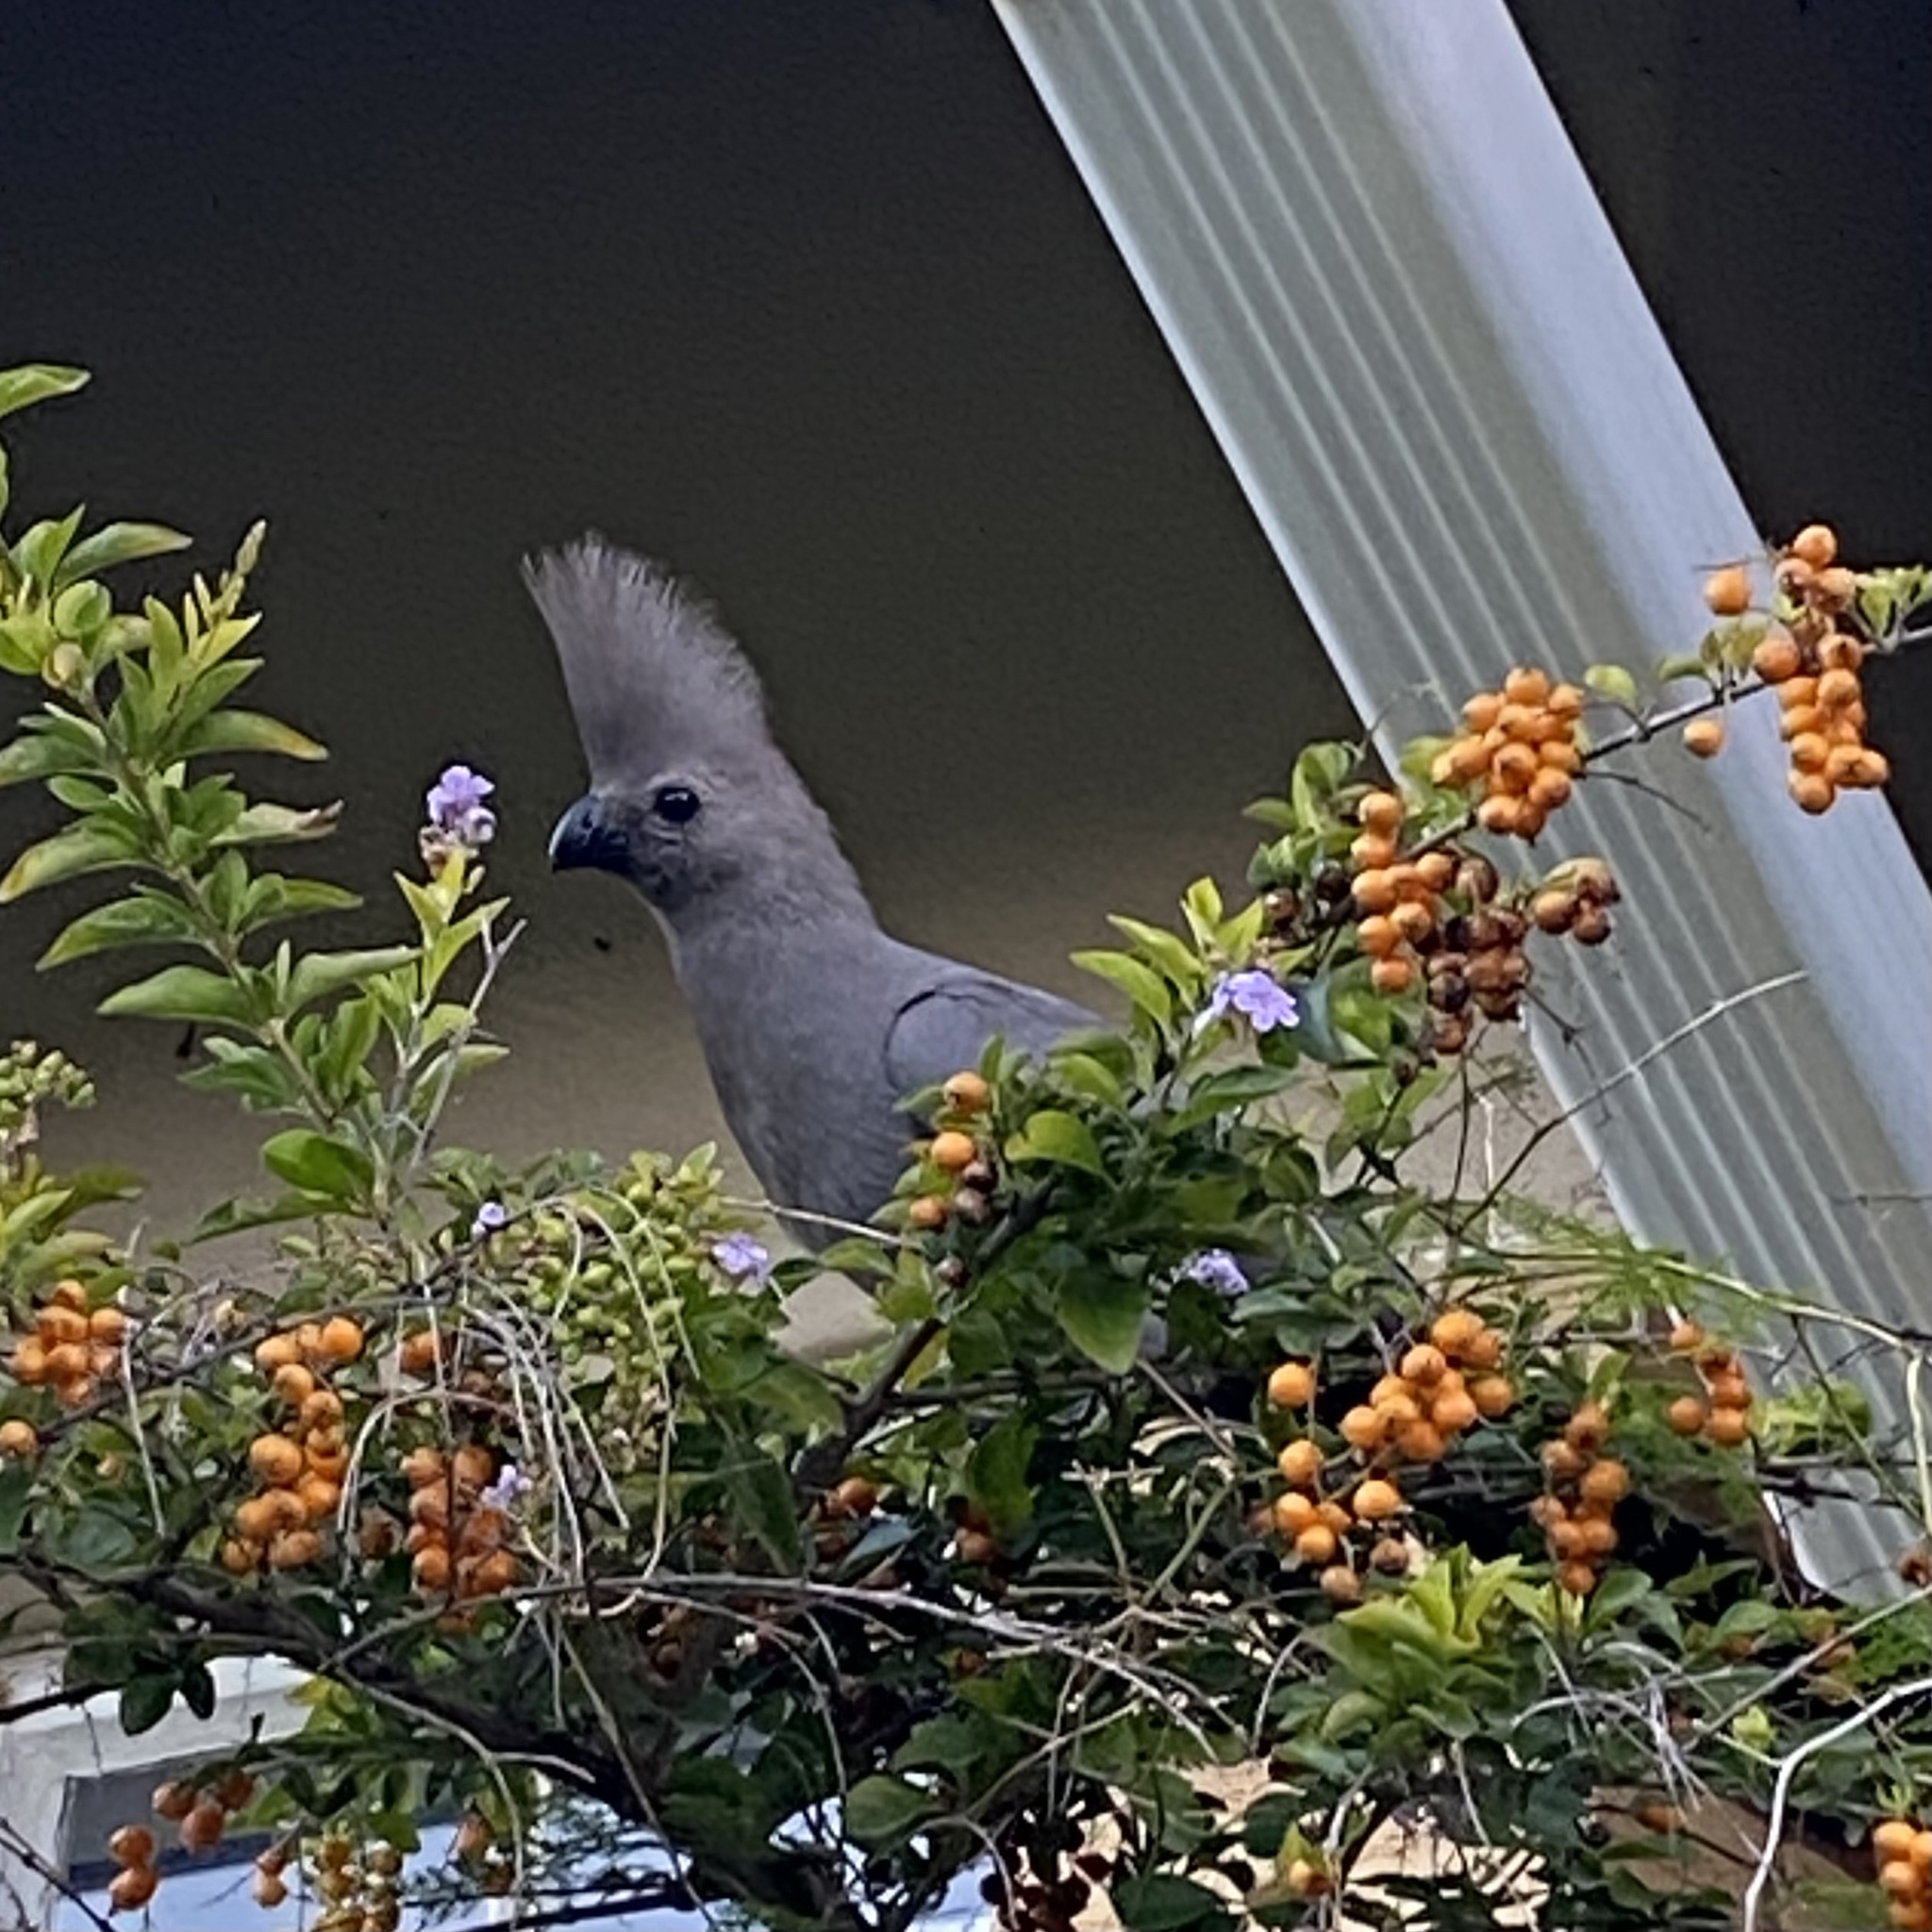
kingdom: Animalia
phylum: Chordata
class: Aves
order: Musophagiformes
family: Musophagidae
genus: Corythaixoides
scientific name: Corythaixoides concolor
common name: Grey go-away-bird
